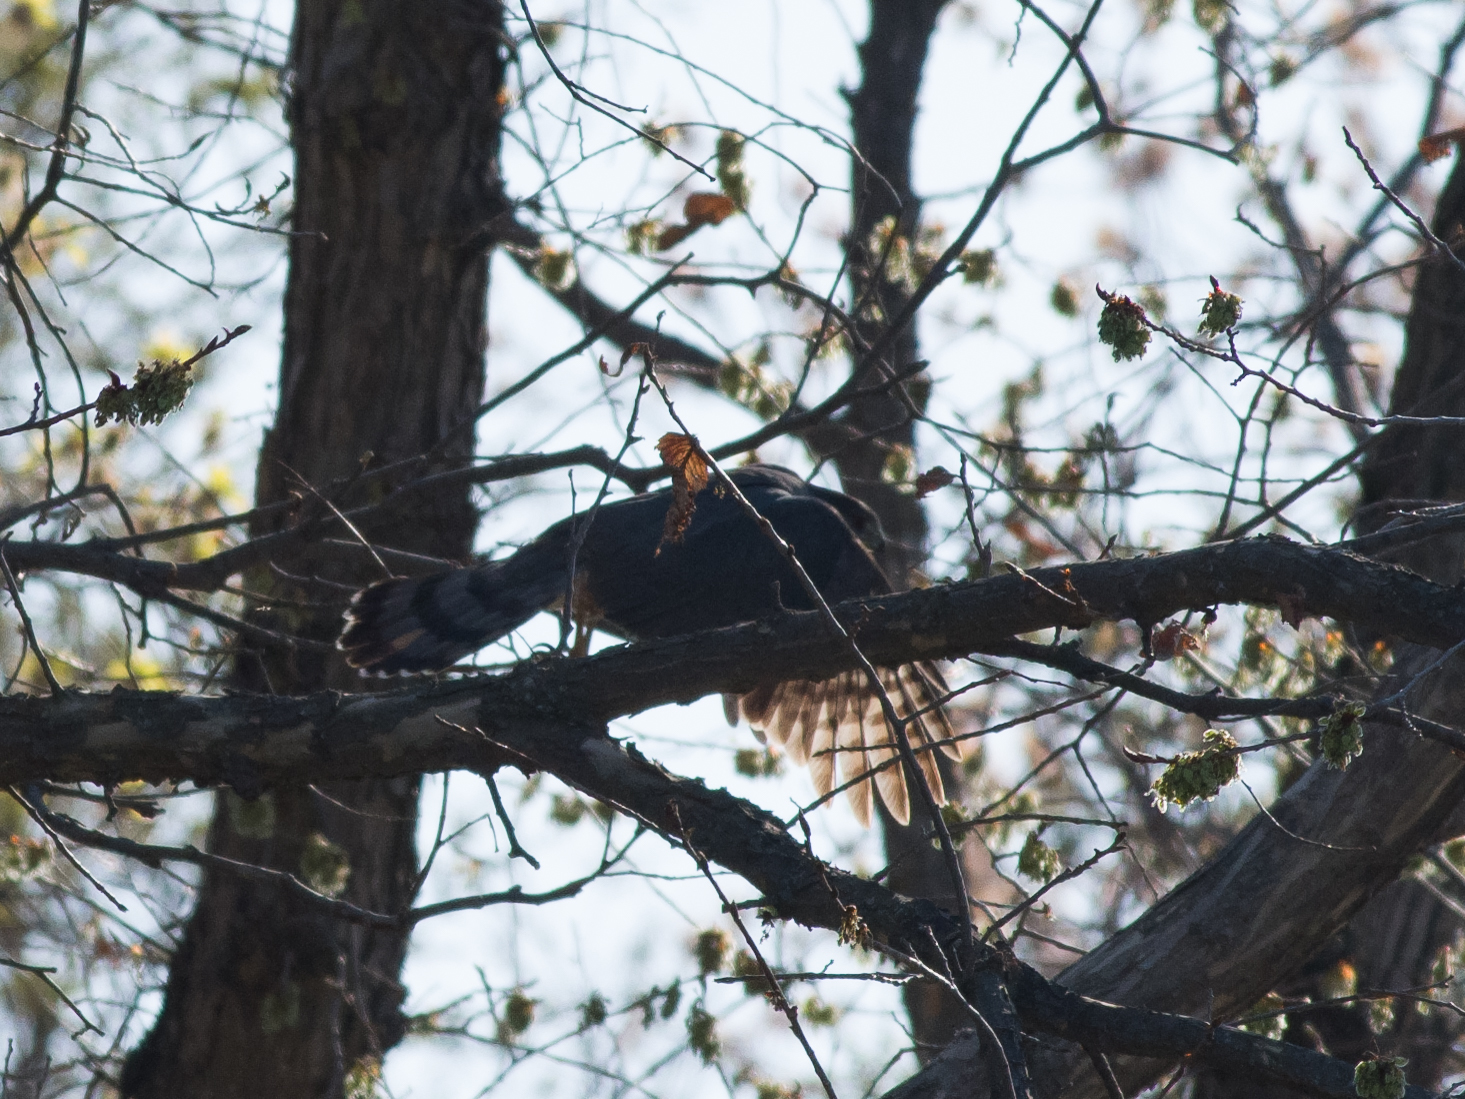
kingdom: Animalia
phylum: Chordata
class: Aves
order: Accipitriformes
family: Accipitridae
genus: Accipiter
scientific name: Accipiter cooperii
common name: Cooper's hawk
